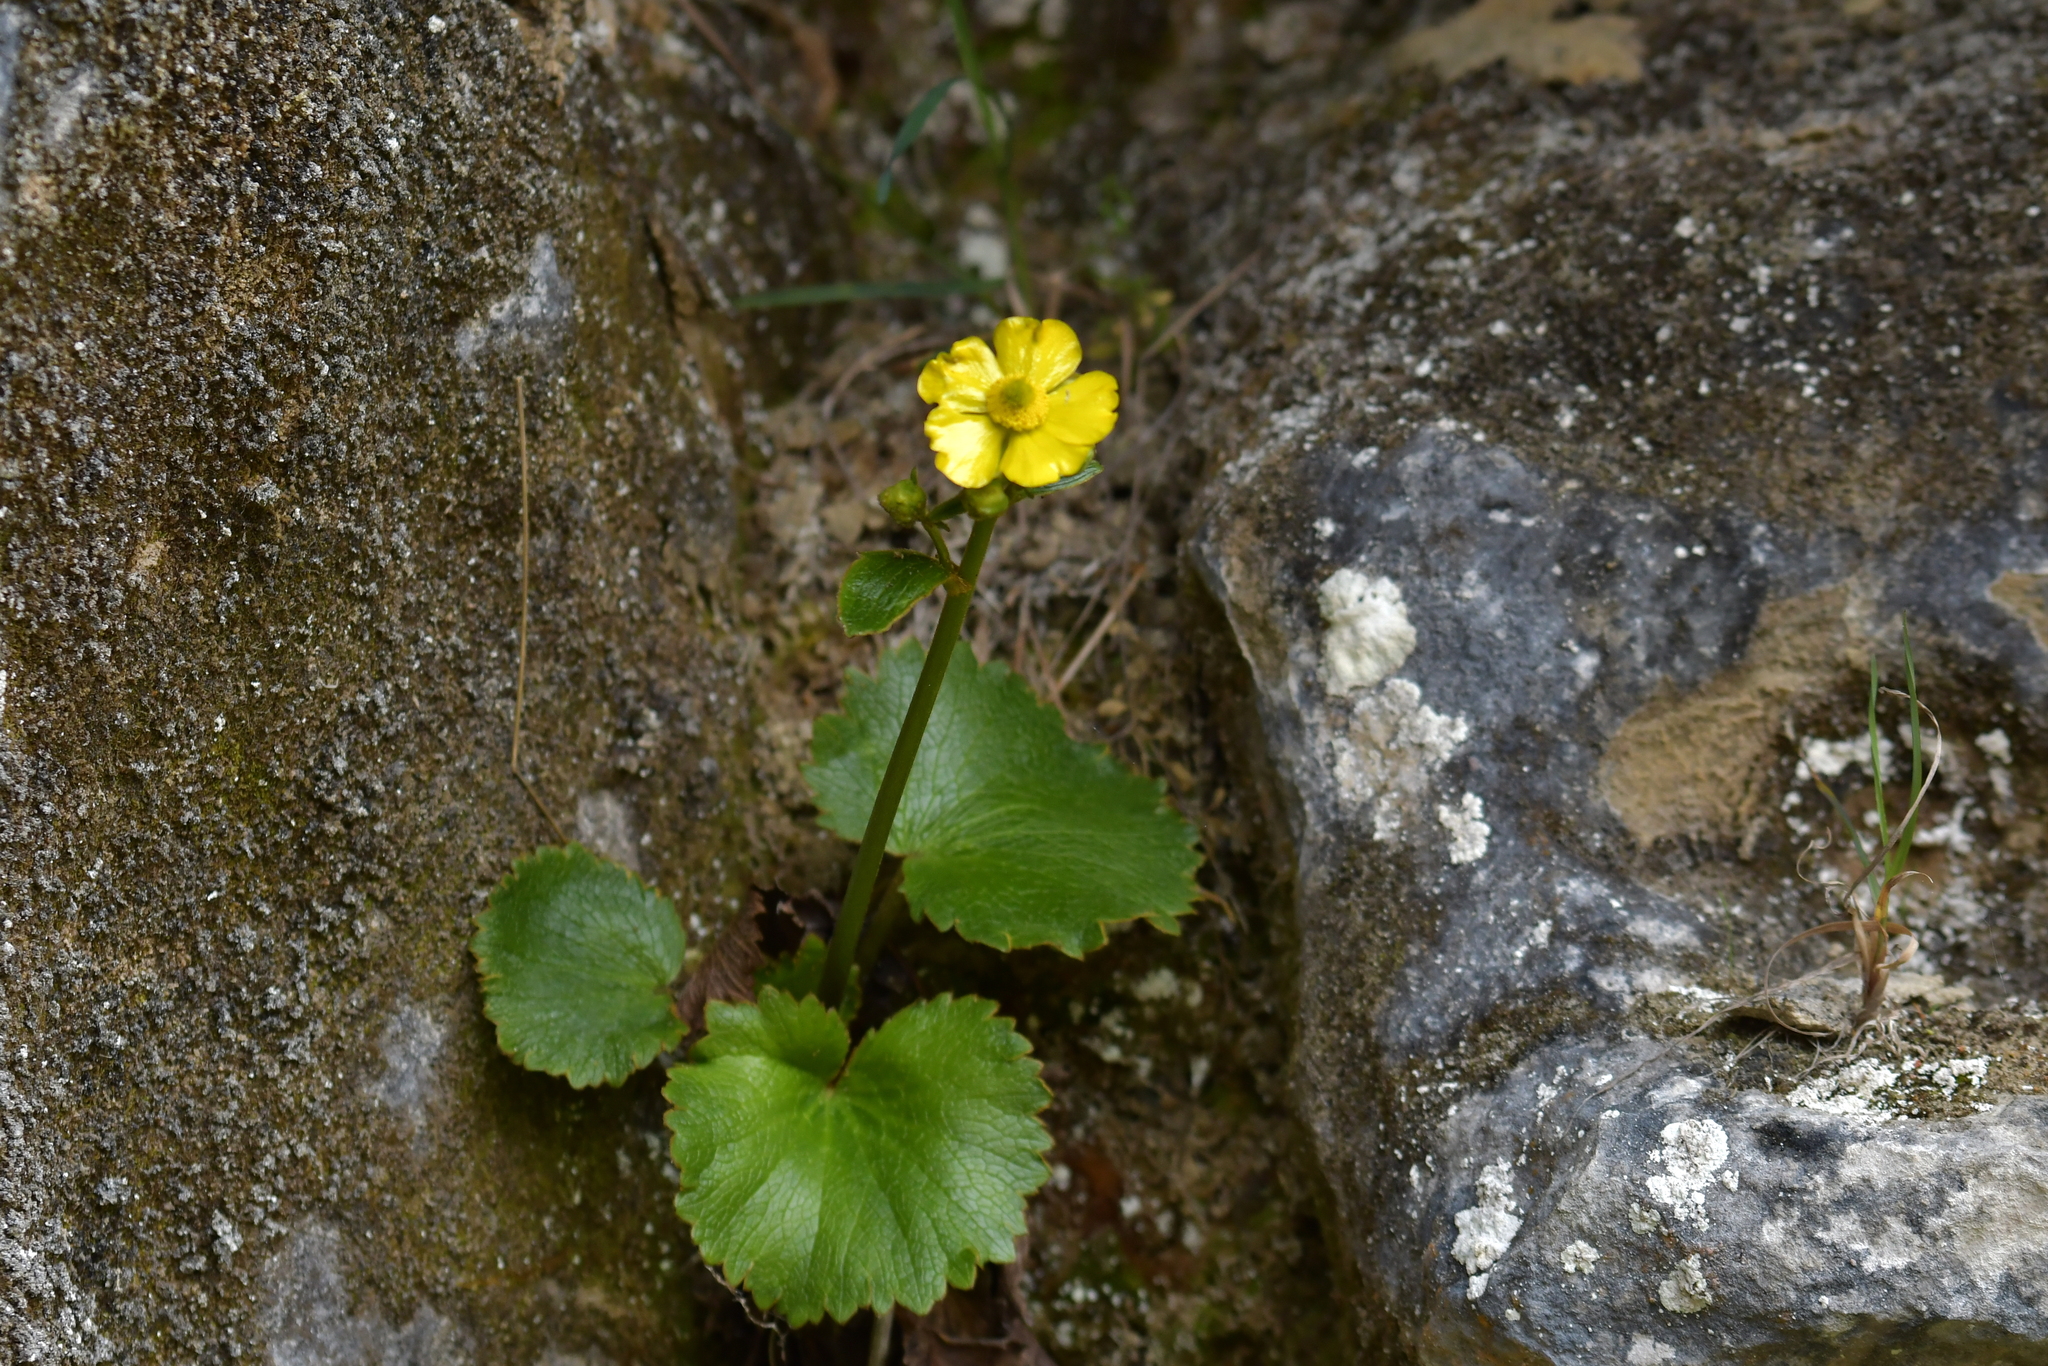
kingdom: Plantae
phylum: Tracheophyta
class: Magnoliopsida
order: Ranunculales
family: Ranunculaceae
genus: Ranunculus
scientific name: Ranunculus insignis
